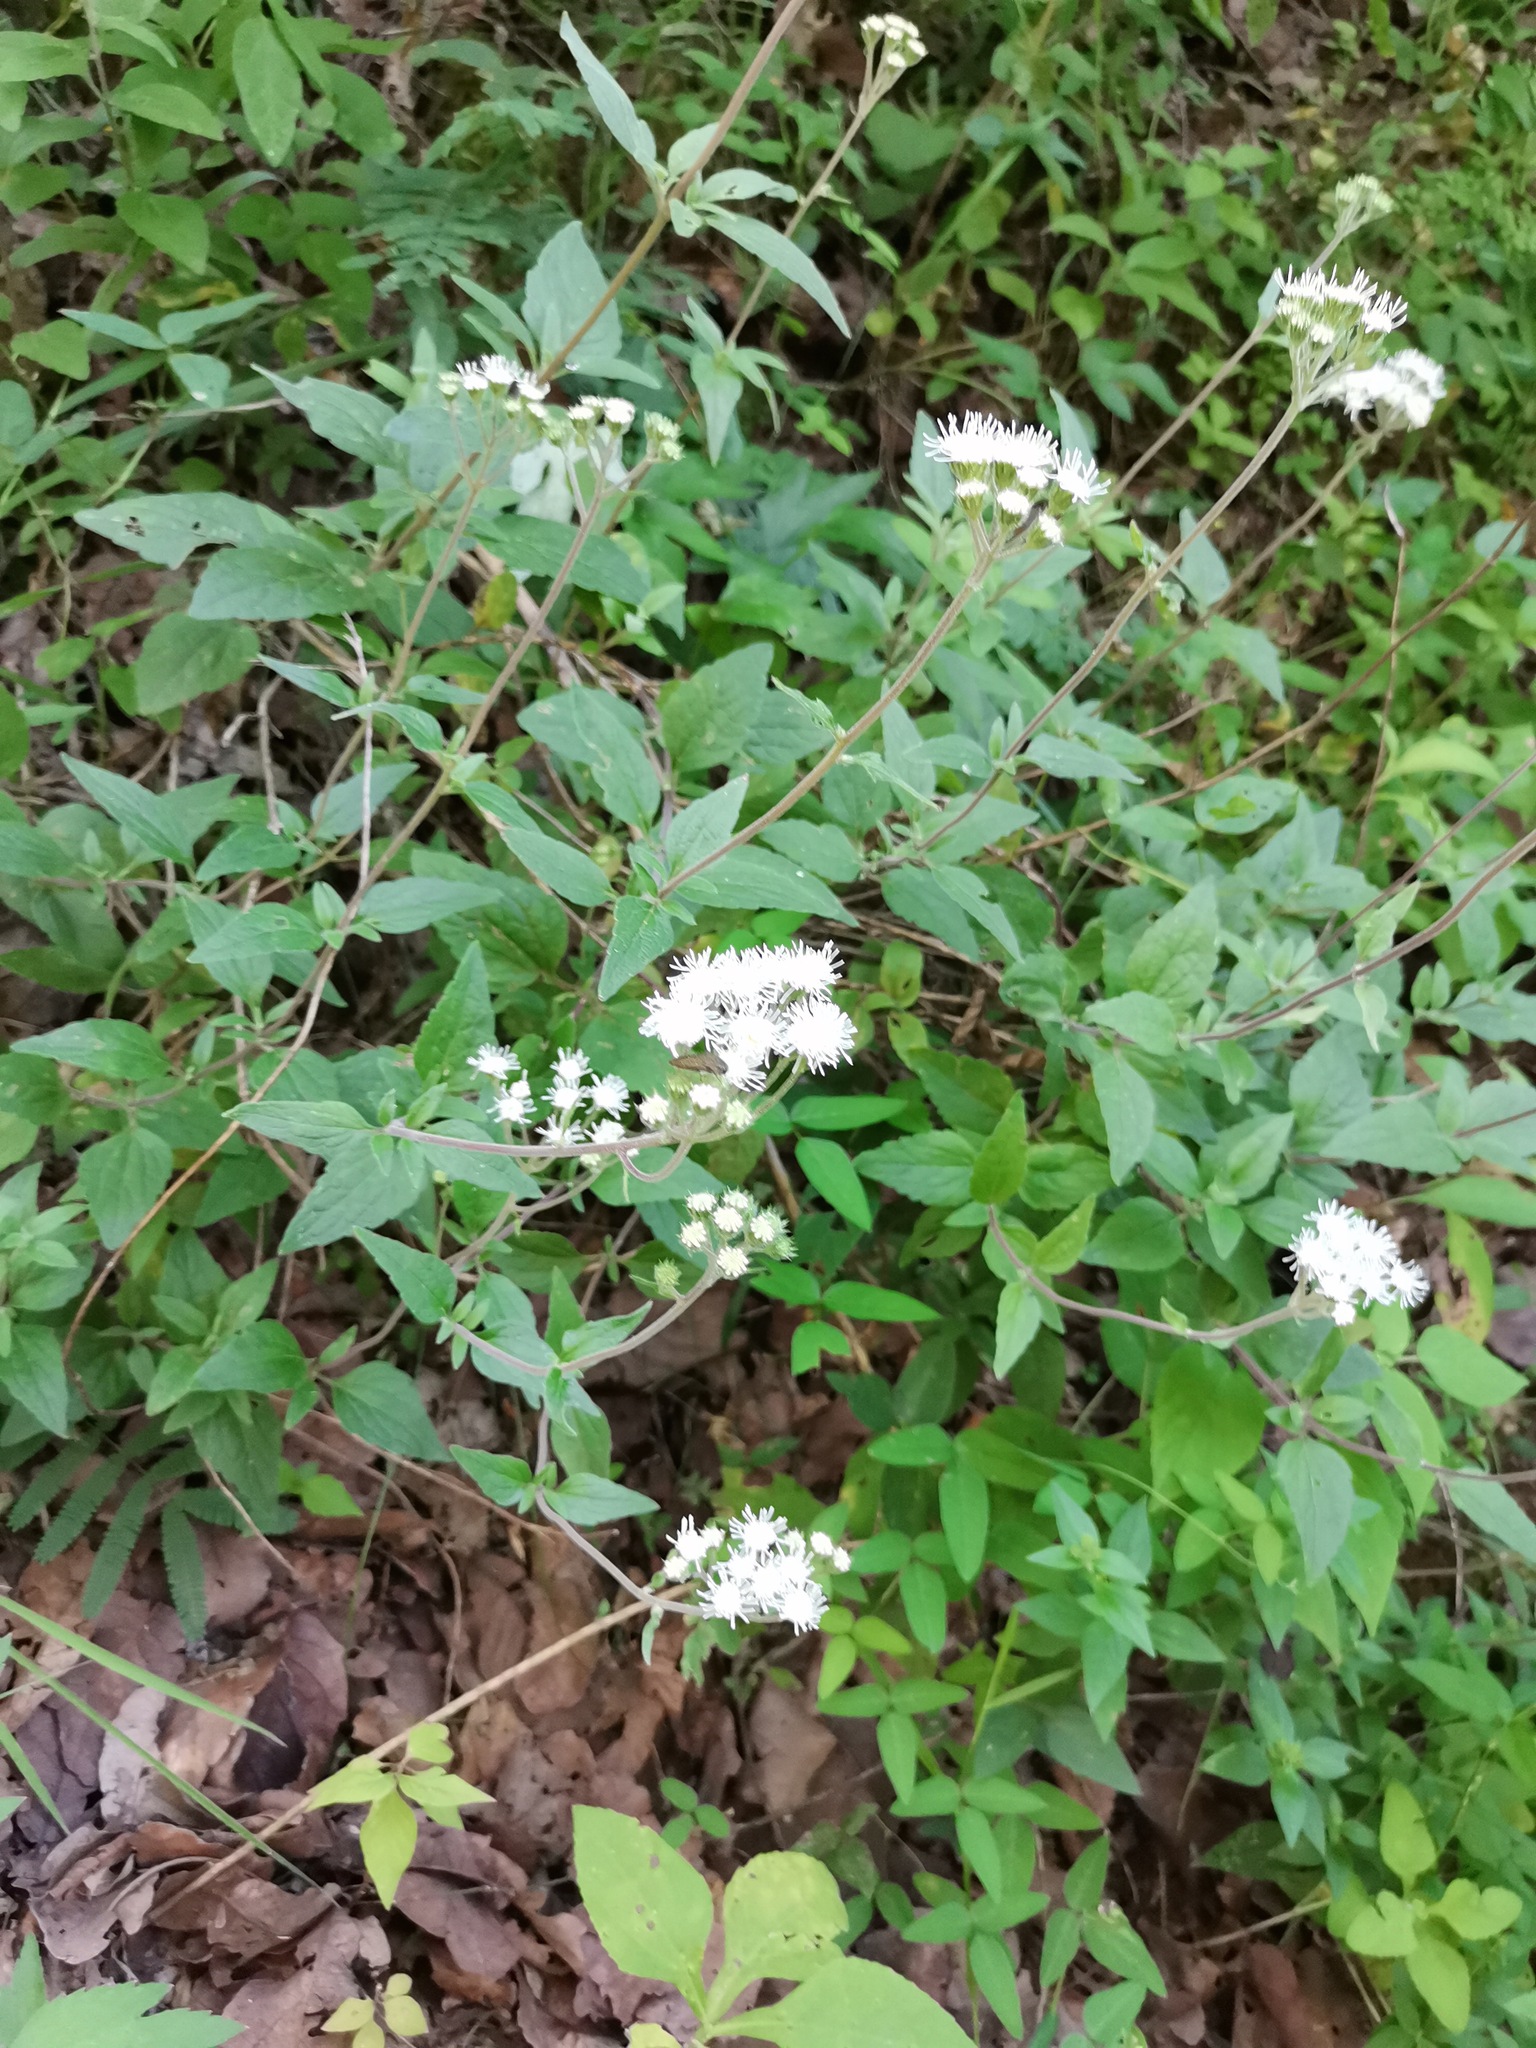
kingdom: Plantae
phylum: Tracheophyta
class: Magnoliopsida
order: Asterales
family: Asteraceae
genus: Ageratum
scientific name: Ageratum corymbosum
